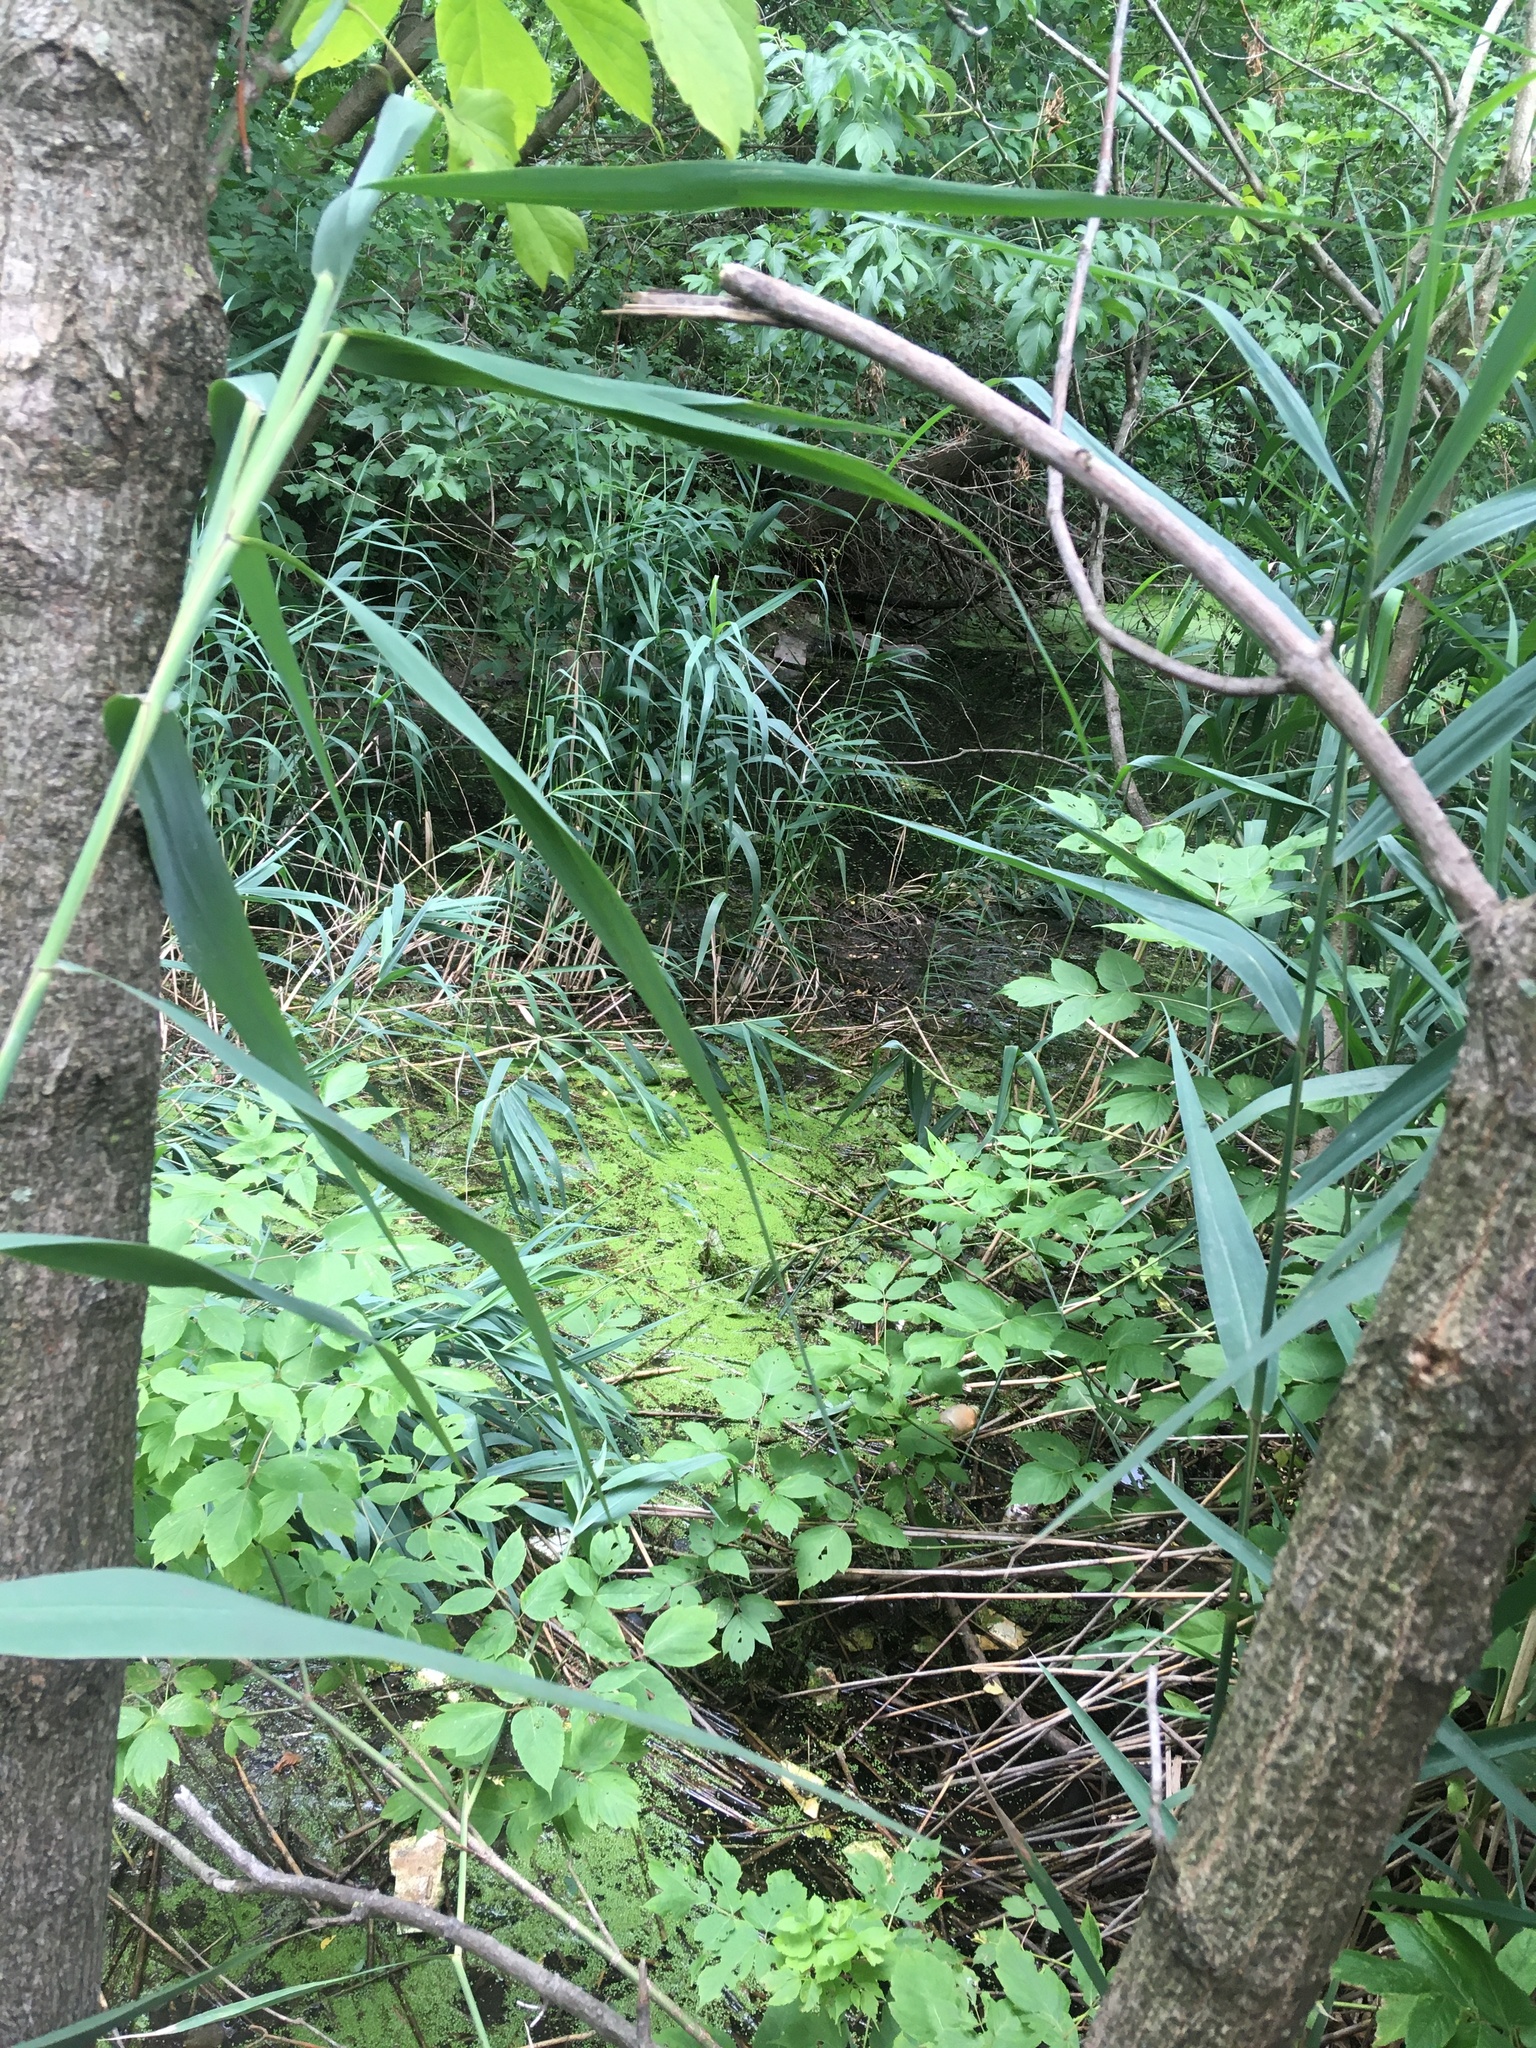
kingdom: Plantae
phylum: Tracheophyta
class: Liliopsida
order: Alismatales
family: Araceae
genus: Lemna
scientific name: Lemna minor
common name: Common duckweed
